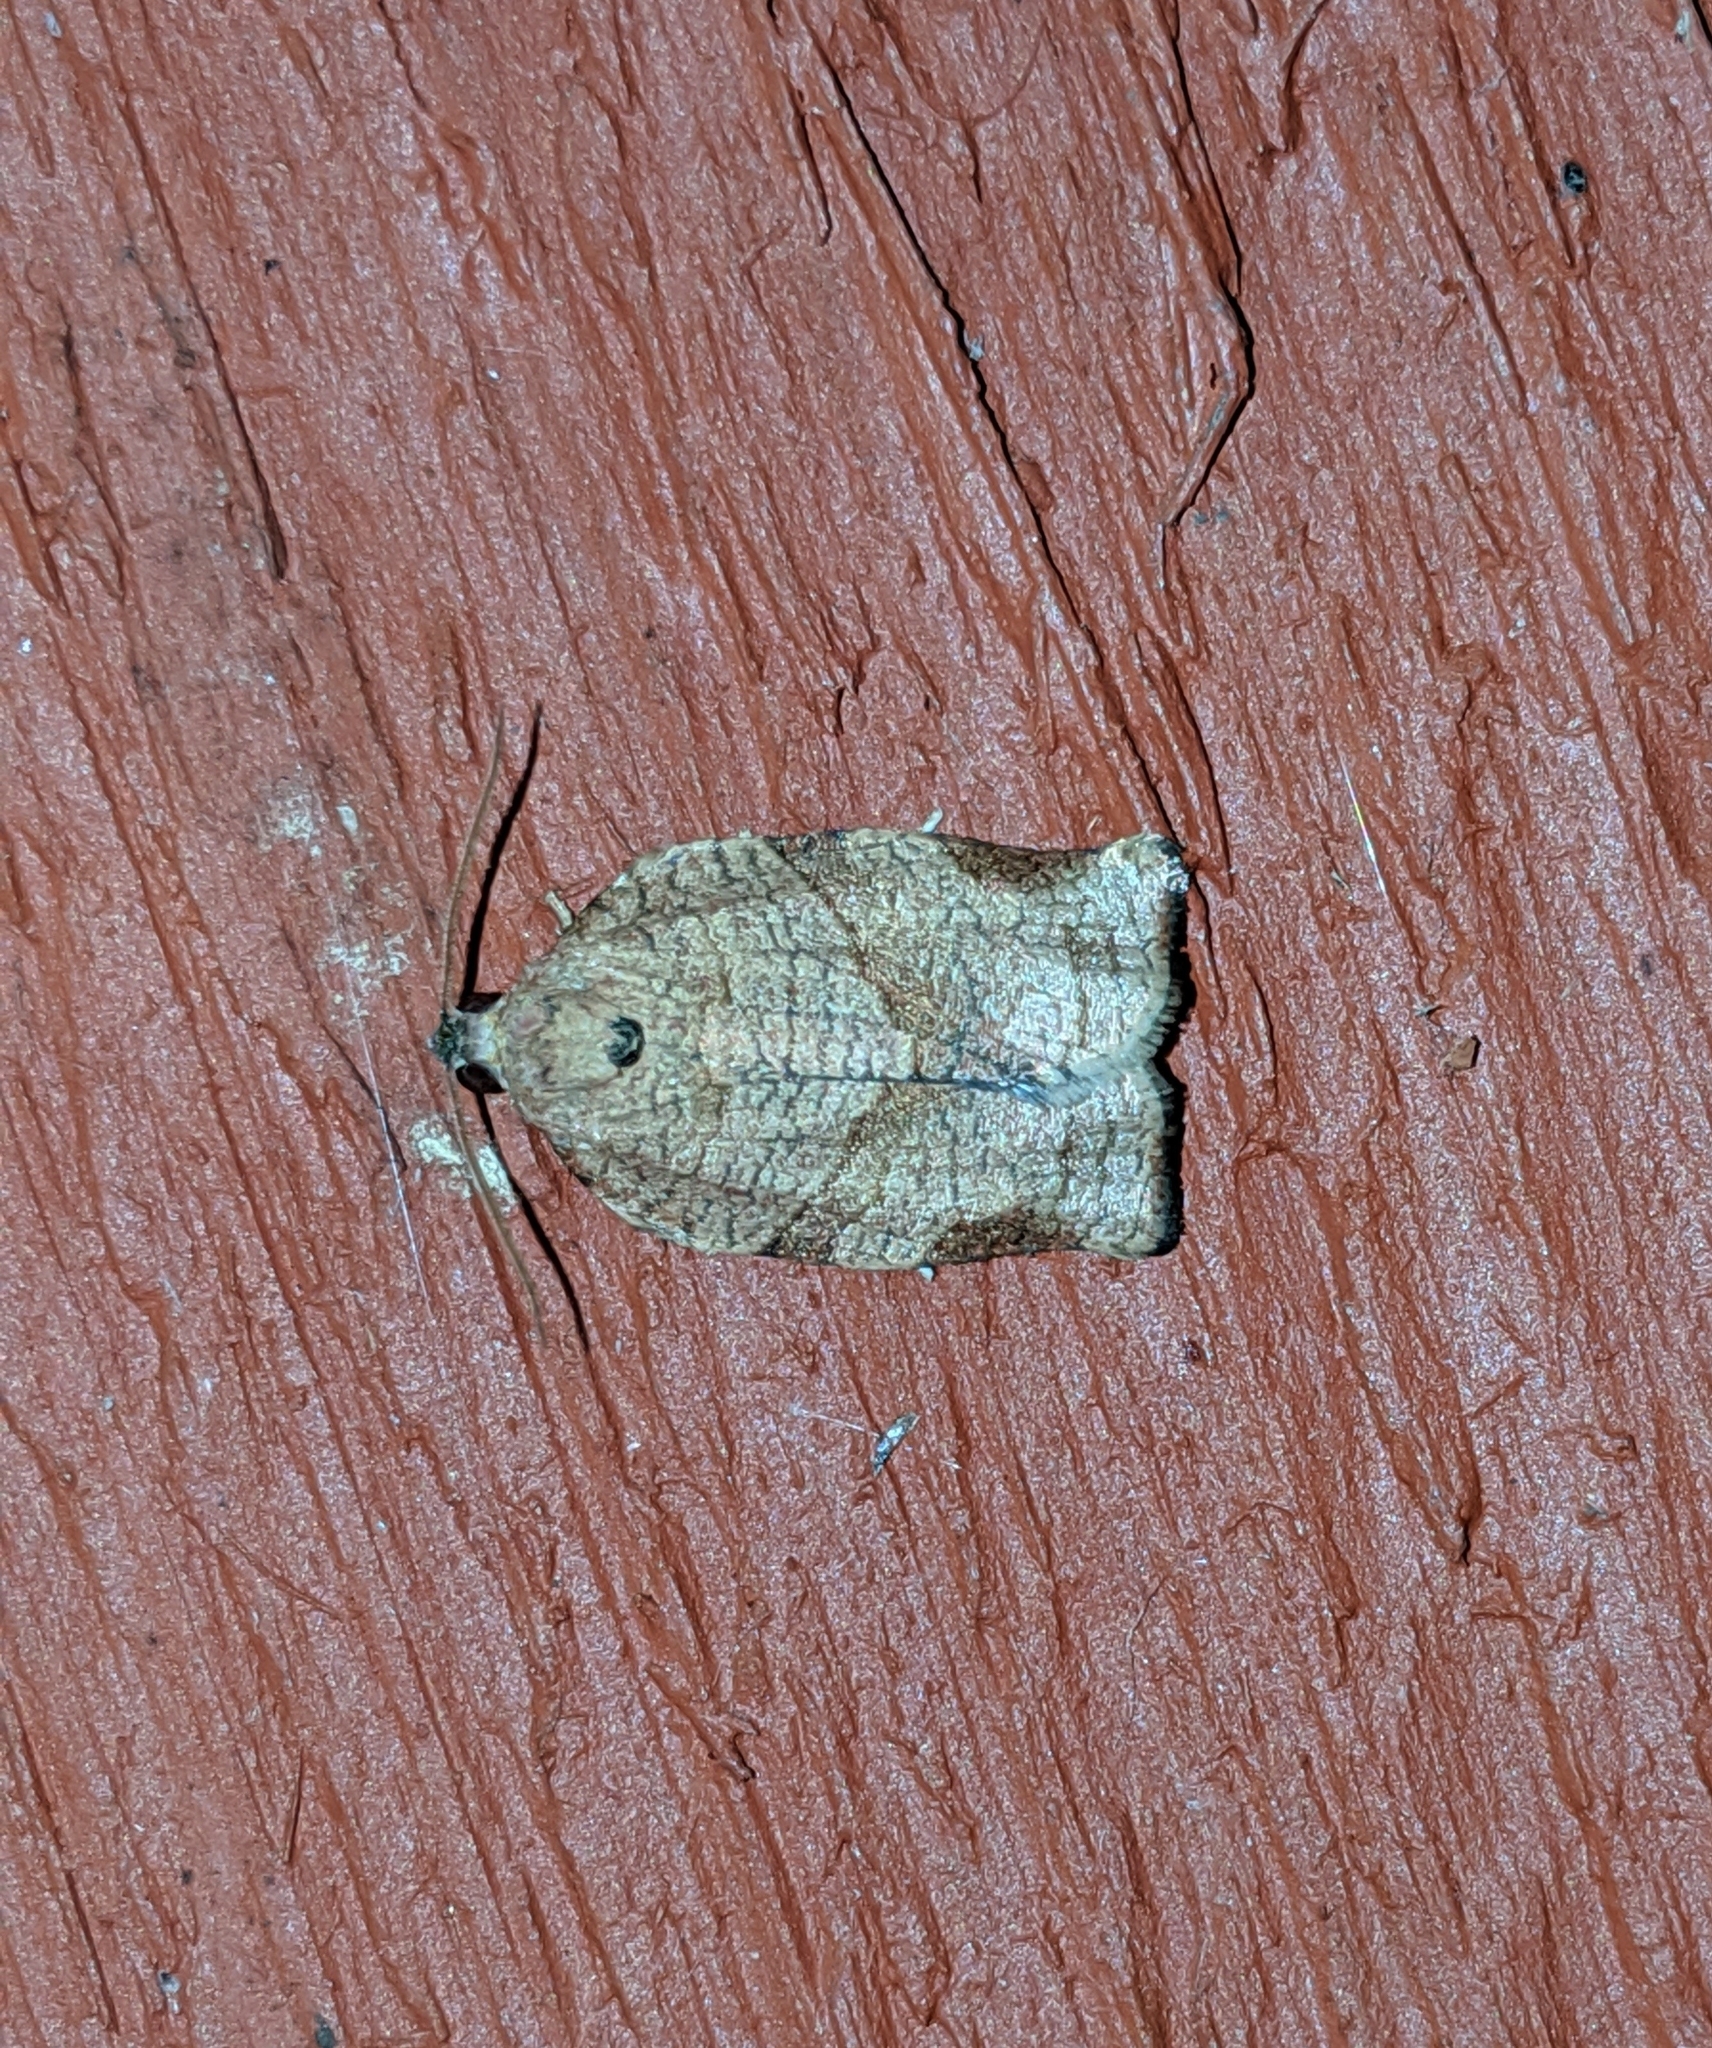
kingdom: Animalia
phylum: Arthropoda
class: Insecta
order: Lepidoptera
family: Tortricidae
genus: Choristoneura
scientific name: Choristoneura rosaceana
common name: Oblique-banded leafroller moth
